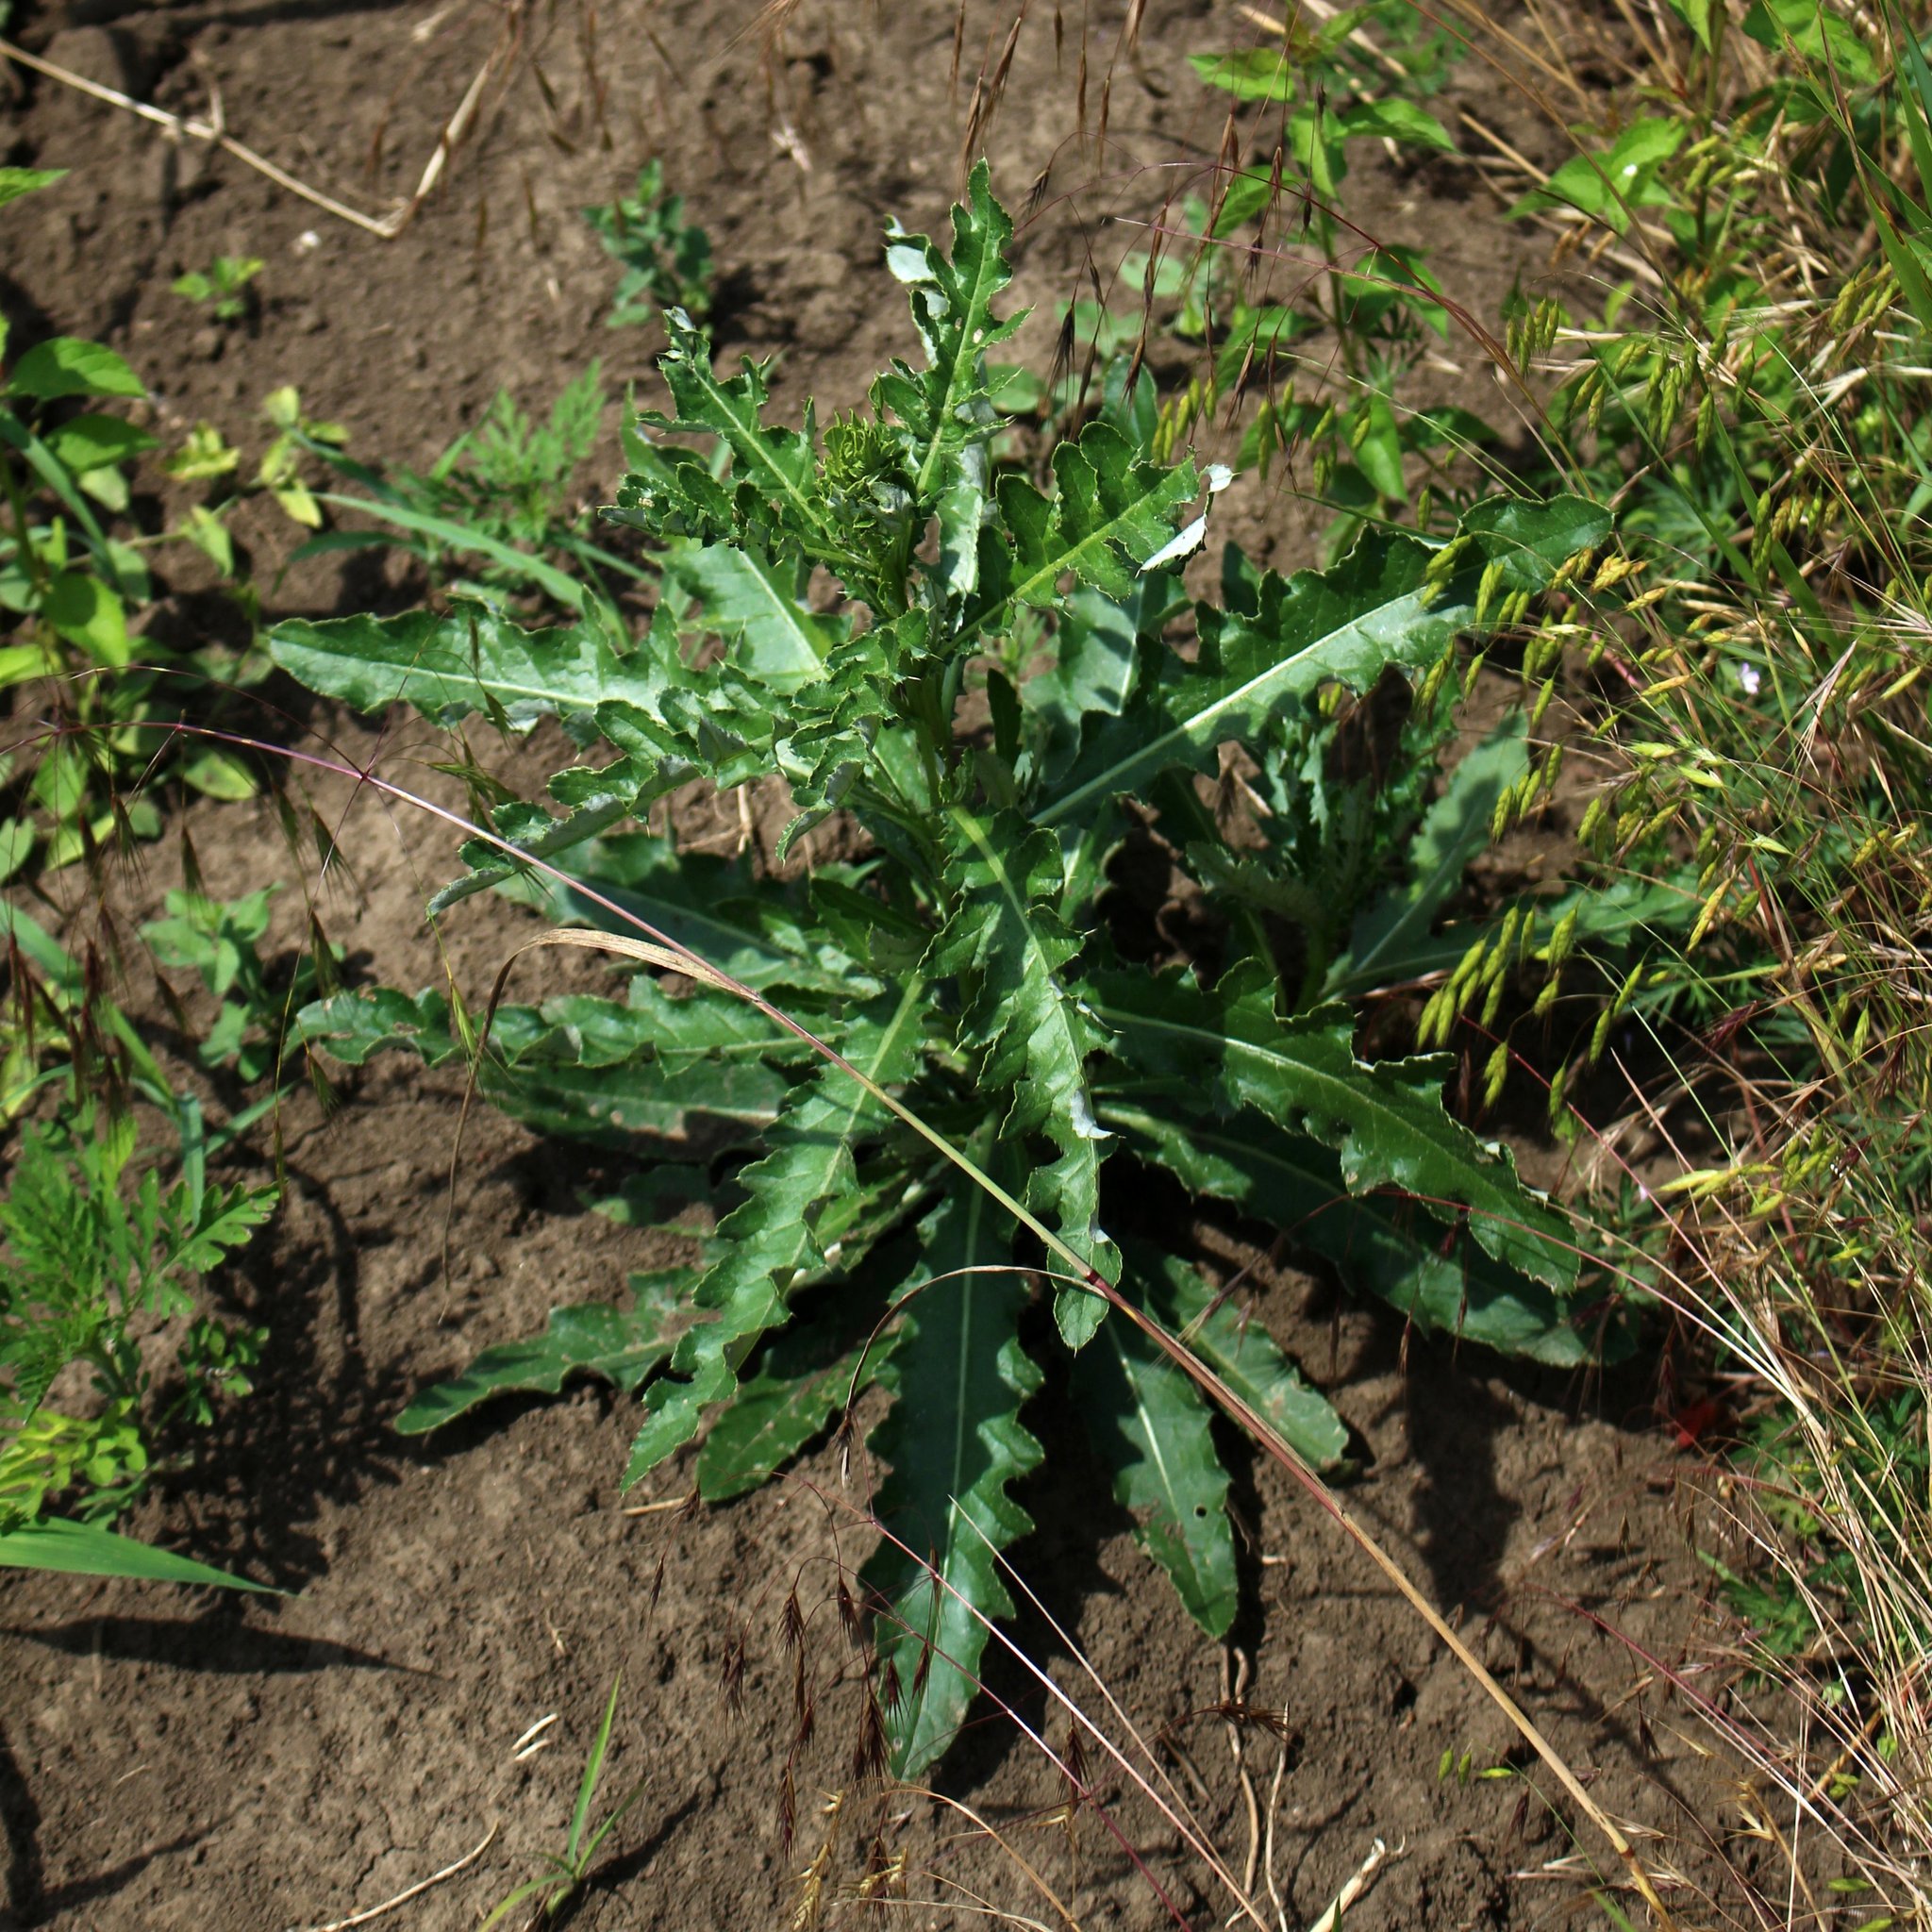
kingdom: Plantae
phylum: Tracheophyta
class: Magnoliopsida
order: Asterales
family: Asteraceae
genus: Cirsium
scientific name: Cirsium arvense
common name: Creeping thistle
